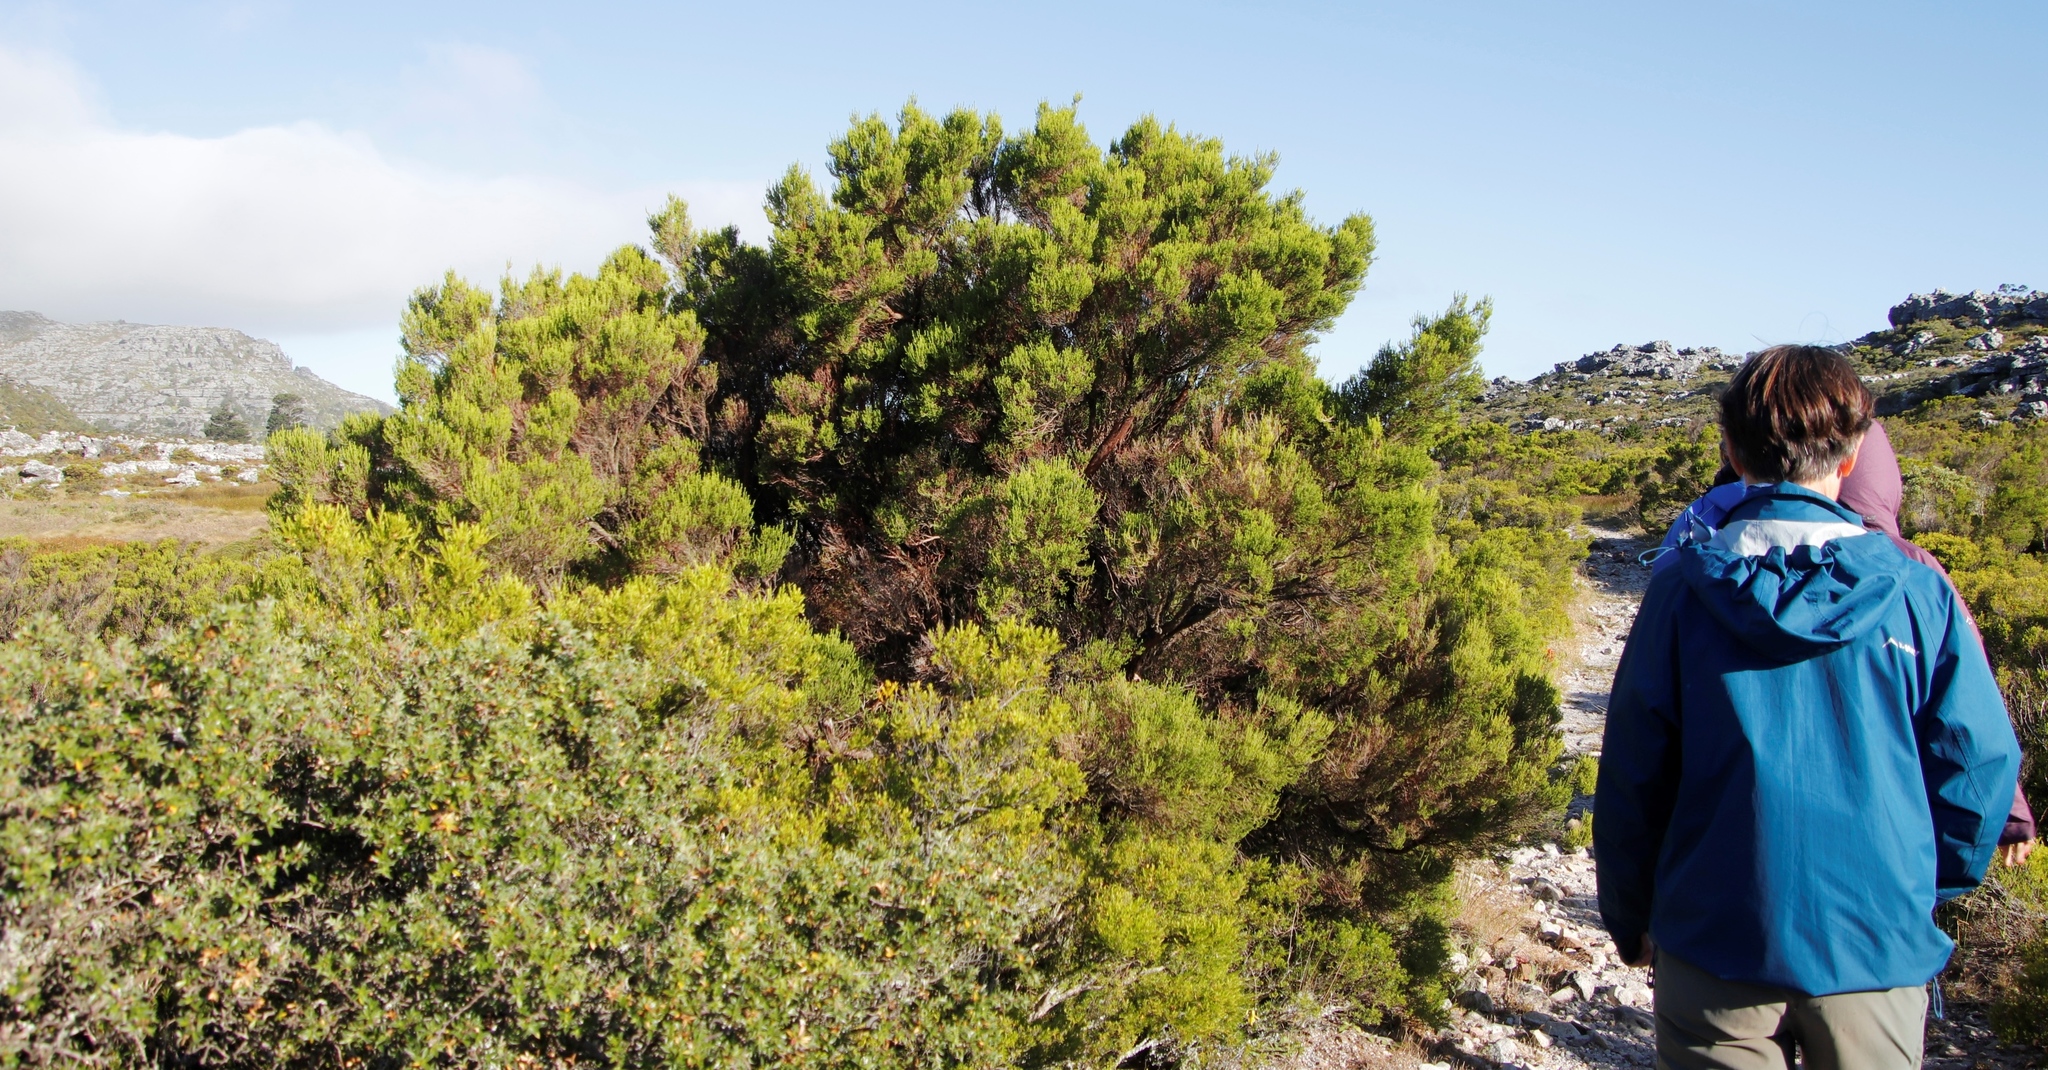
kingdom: Plantae
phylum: Tracheophyta
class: Magnoliopsida
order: Ericales
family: Ericaceae
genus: Erica
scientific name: Erica tristis
